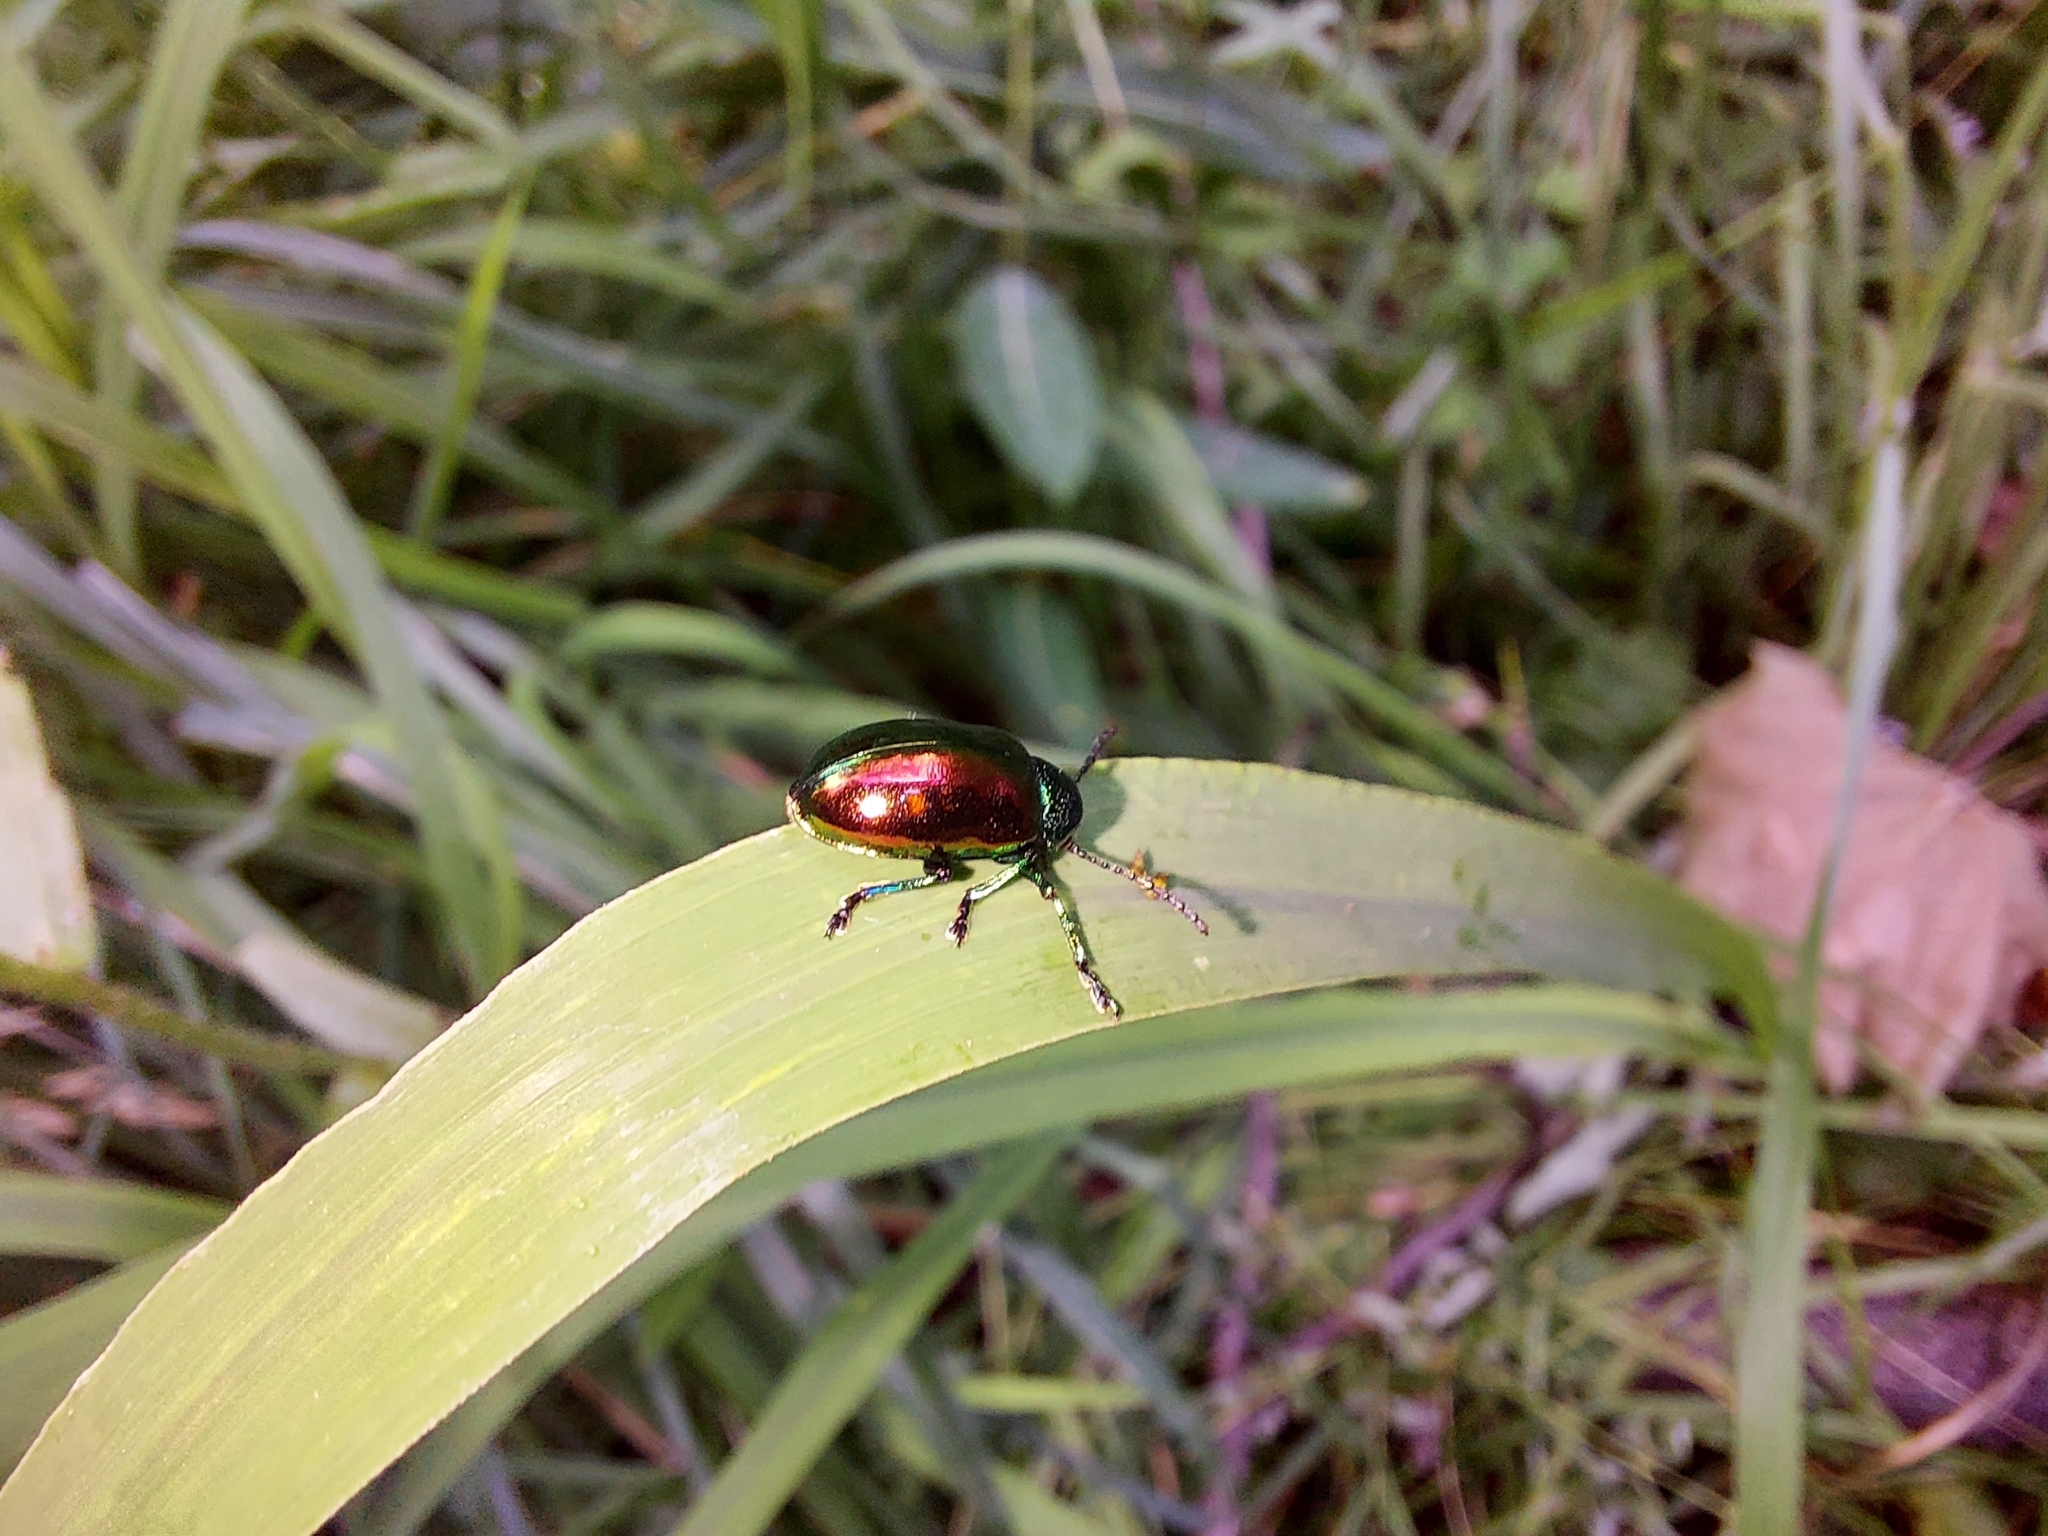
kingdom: Animalia
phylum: Arthropoda
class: Insecta
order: Coleoptera
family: Chrysomelidae
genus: Chrysochus
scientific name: Chrysochus auratus
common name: Dogbane leaf beetle
